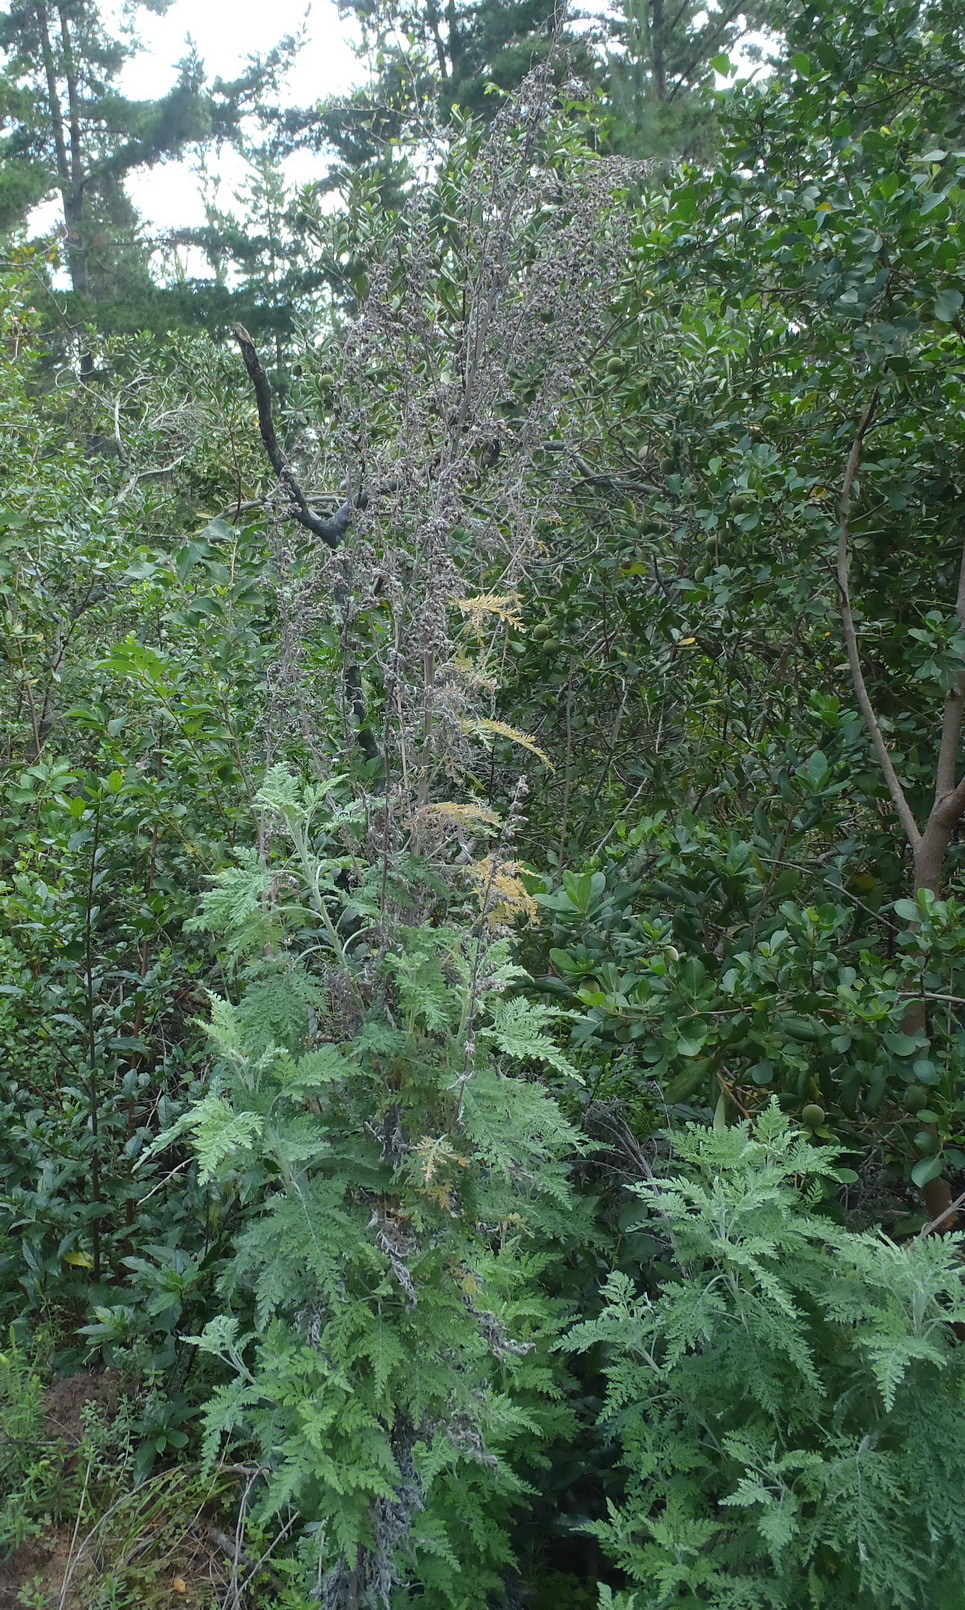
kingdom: Plantae
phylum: Tracheophyta
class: Magnoliopsida
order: Asterales
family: Asteraceae
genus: Artemisia
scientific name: Artemisia afra
